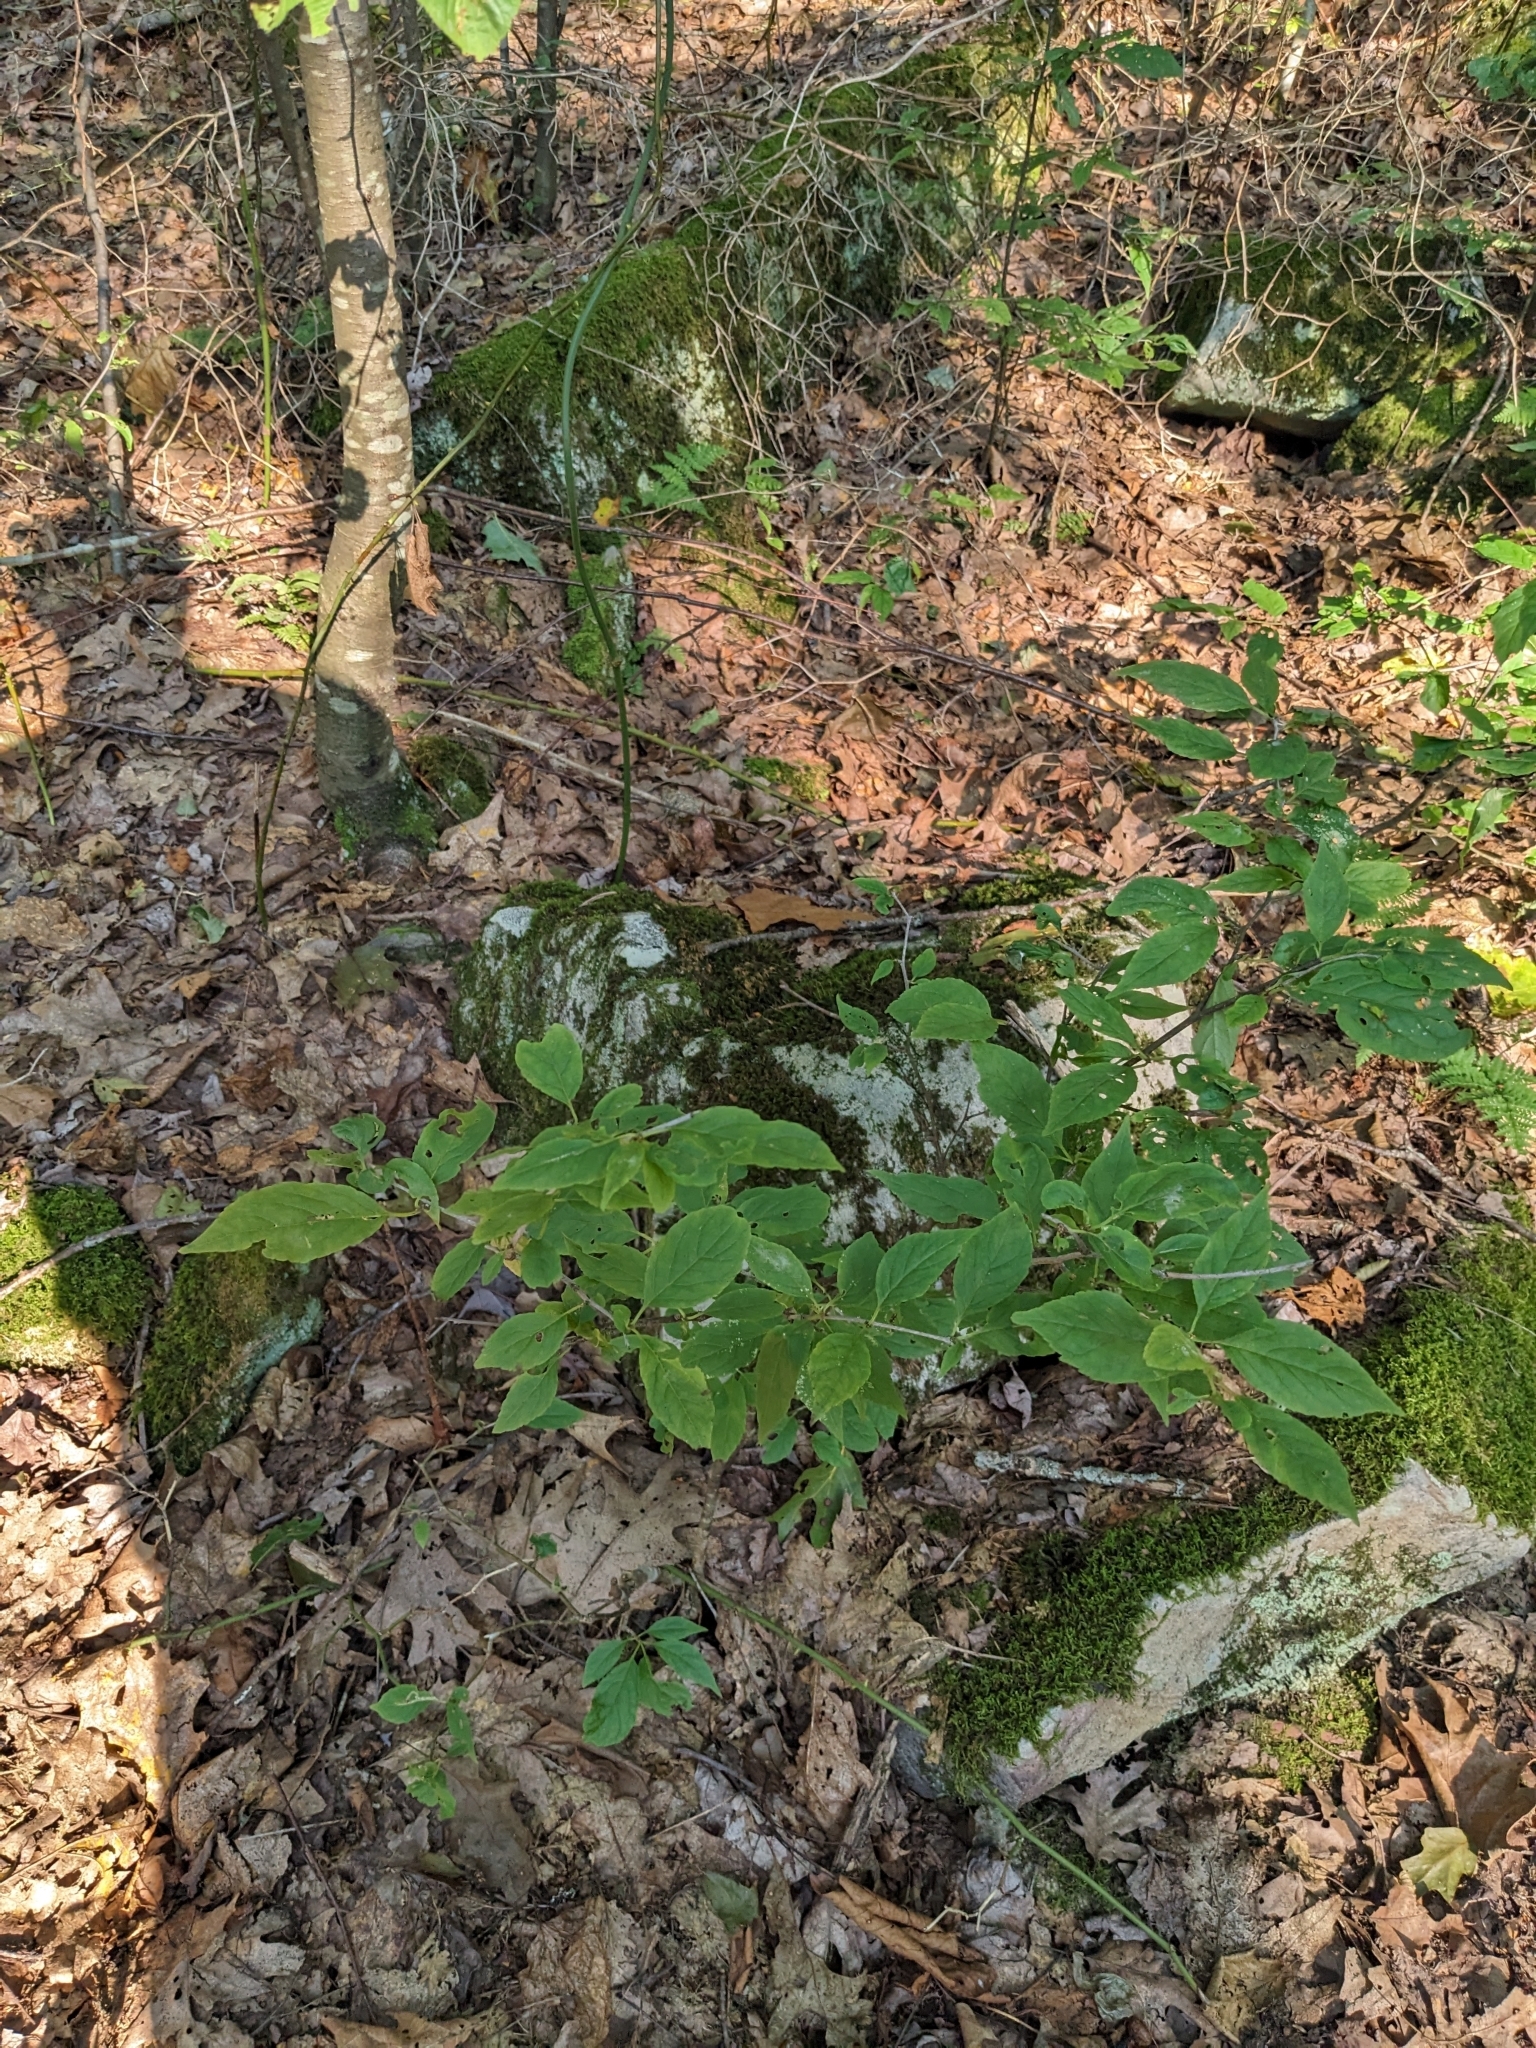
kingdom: Plantae
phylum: Tracheophyta
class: Magnoliopsida
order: Aquifoliales
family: Aquifoliaceae
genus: Ilex
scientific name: Ilex montana
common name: Mountain winterberry
